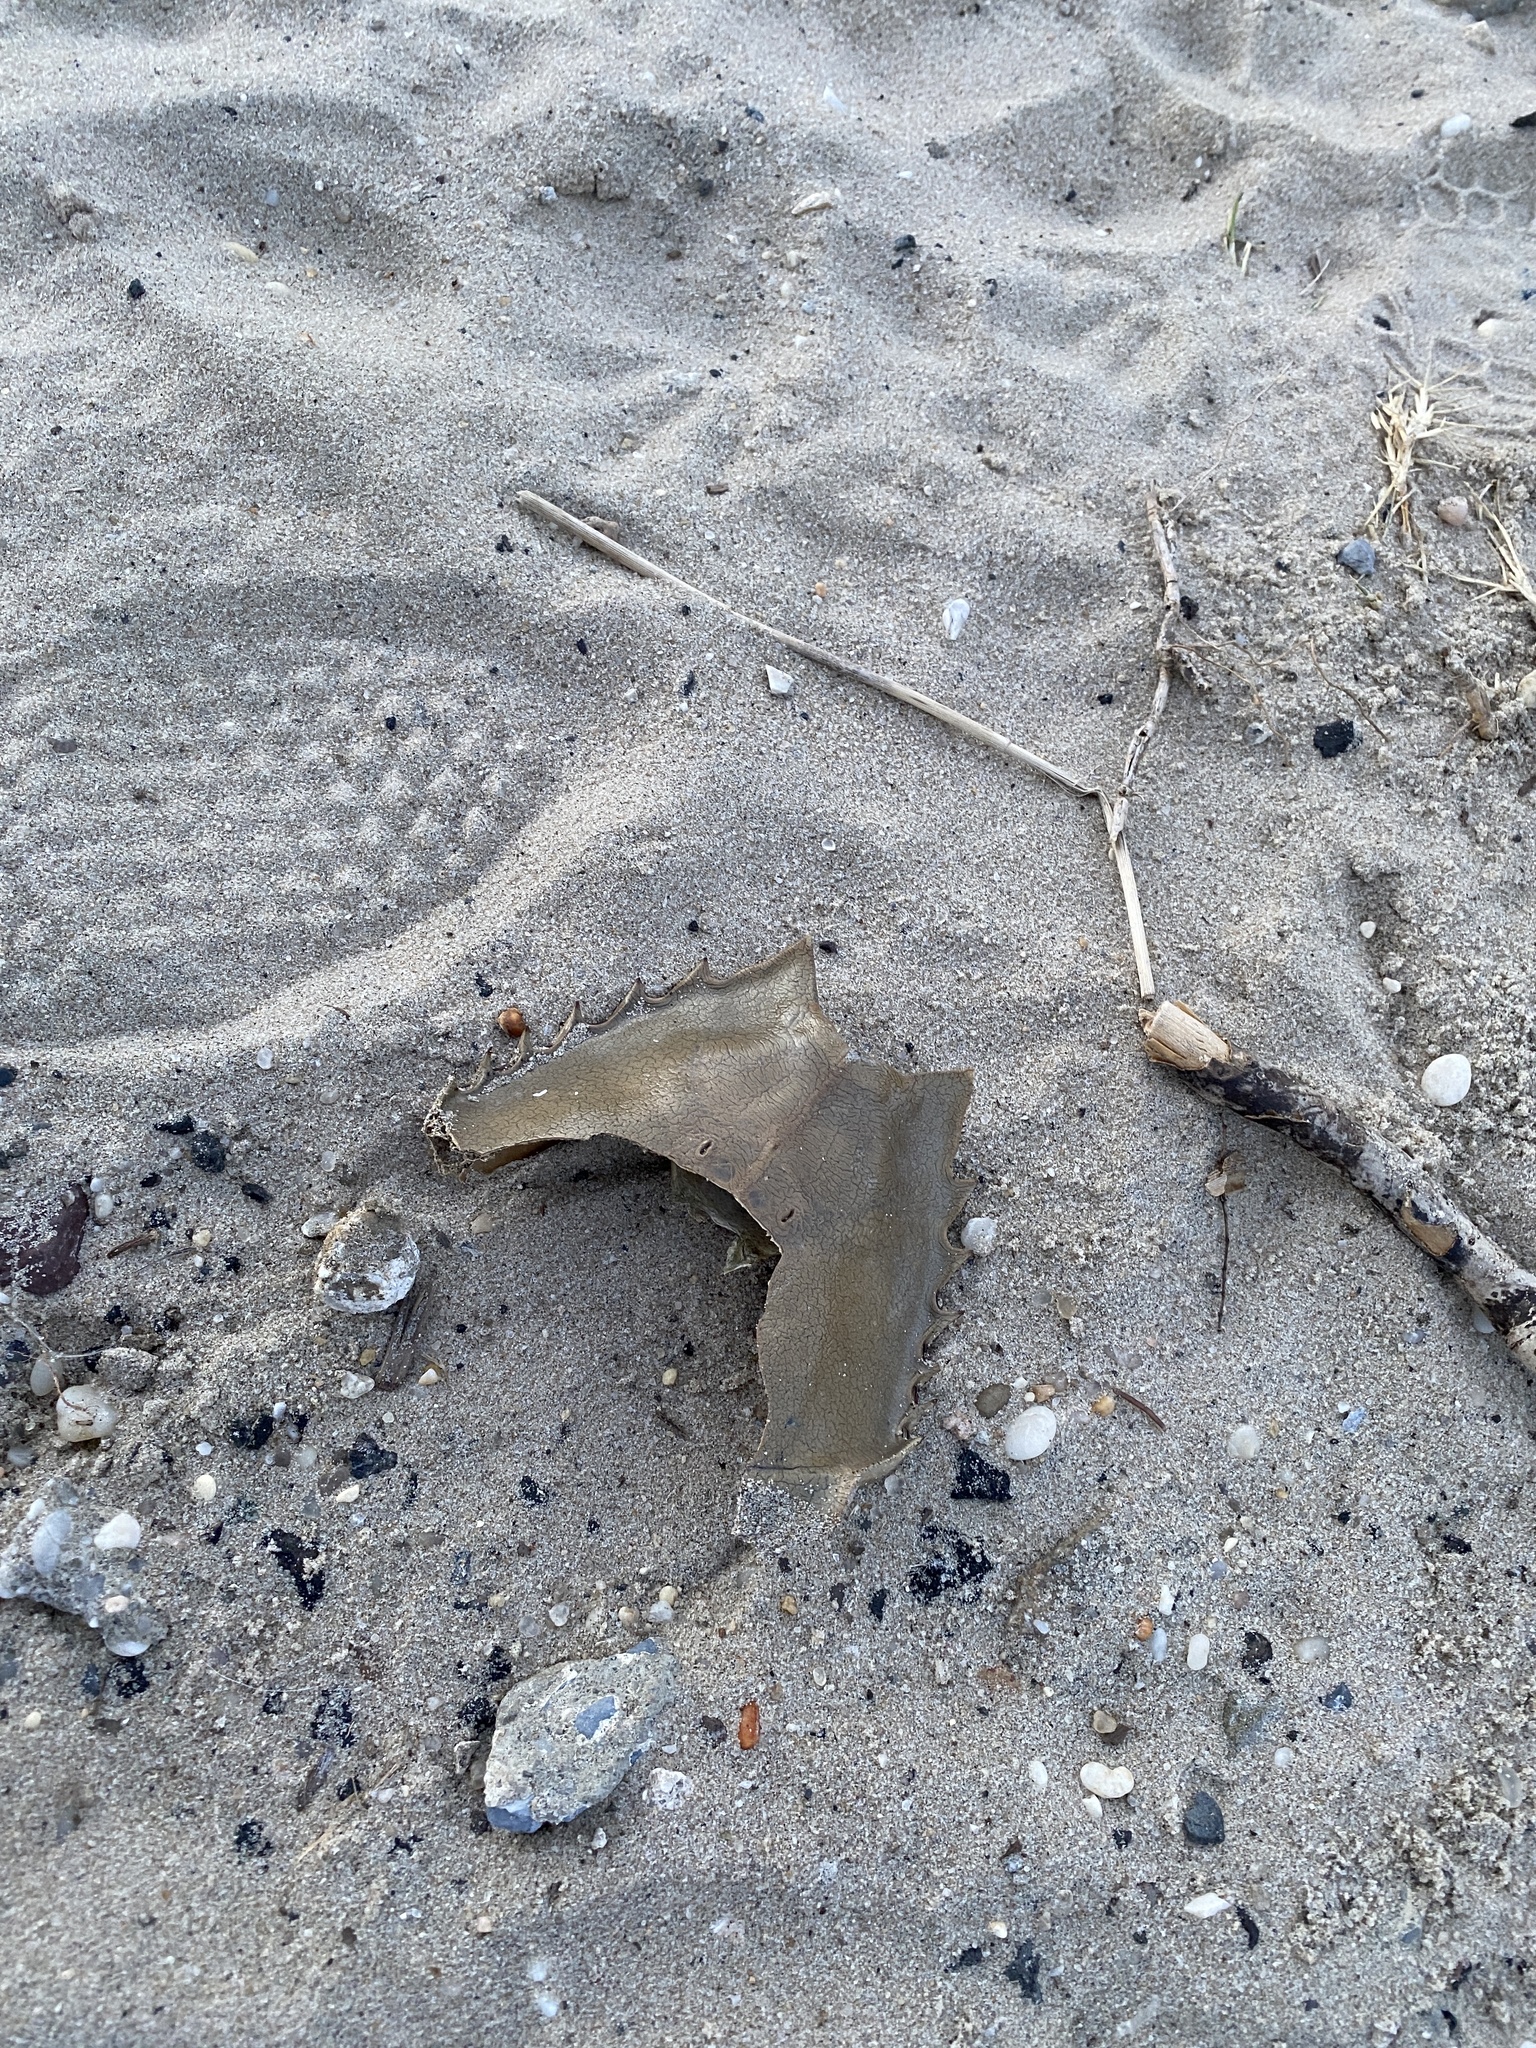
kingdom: Animalia
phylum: Arthropoda
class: Merostomata
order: Xiphosurida
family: Limulidae
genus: Limulus
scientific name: Limulus polyphemus
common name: Horseshoe crab
